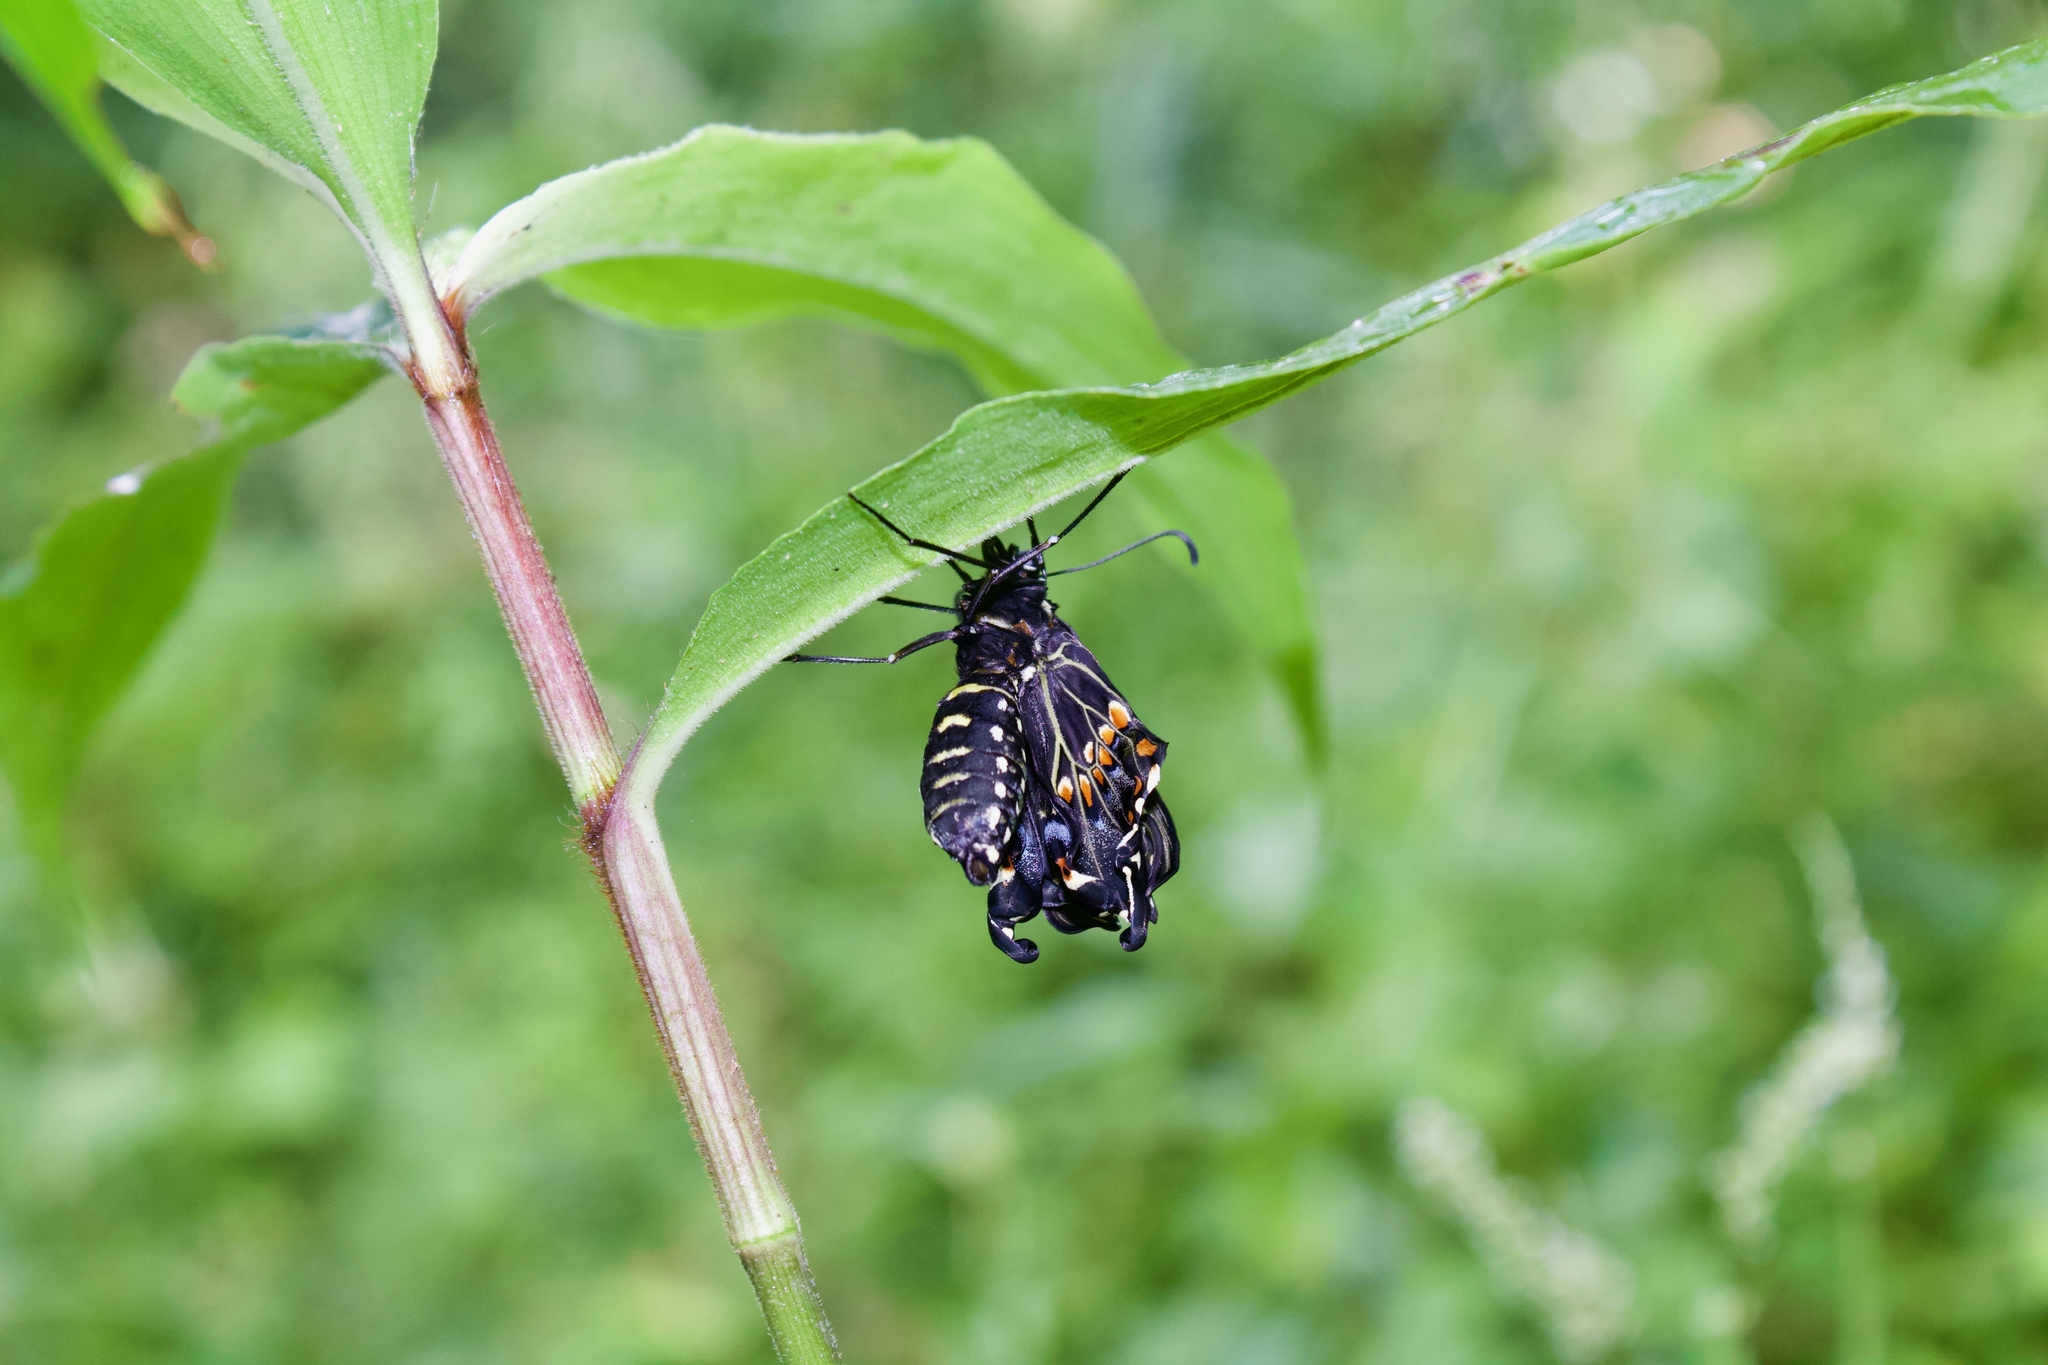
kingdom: Animalia
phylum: Arthropoda
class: Insecta
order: Lepidoptera
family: Papilionidae
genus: Papilio
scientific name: Papilio polyxenes
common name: Black swallowtail
